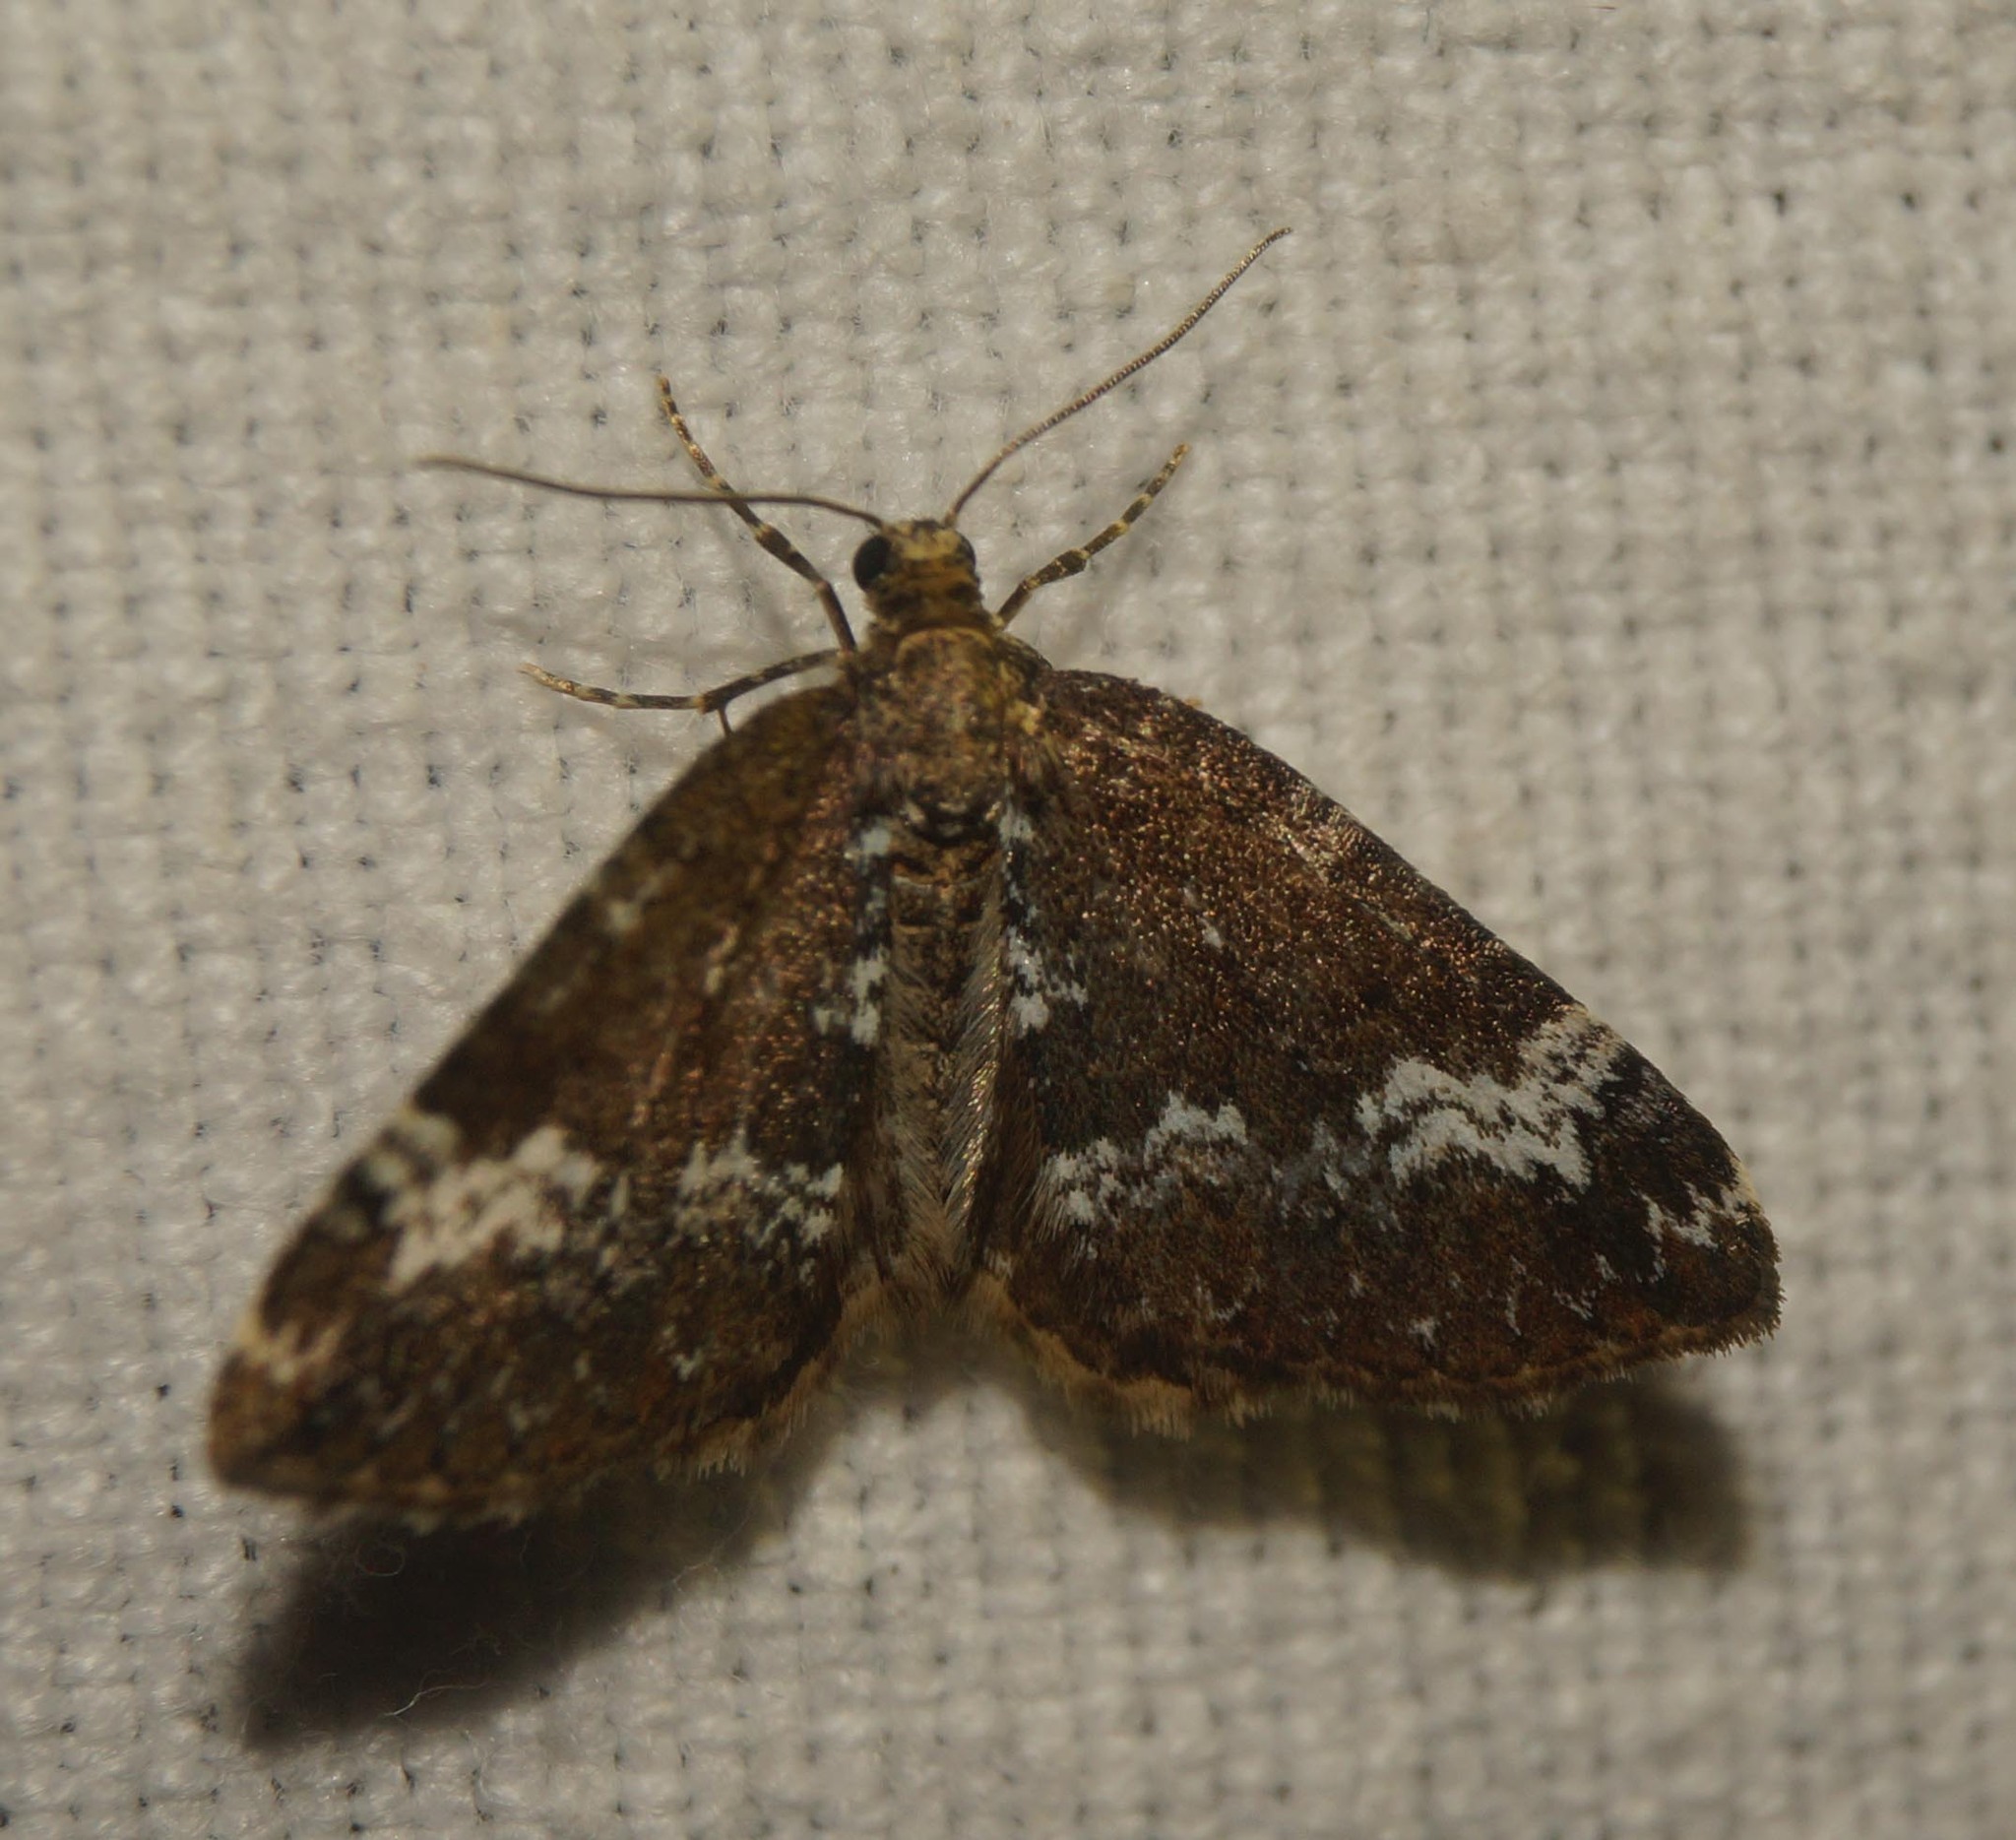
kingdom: Animalia
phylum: Arthropoda
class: Insecta
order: Lepidoptera
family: Geometridae
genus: Perizoma
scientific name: Perizoma alchemillata
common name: Small rivulet
